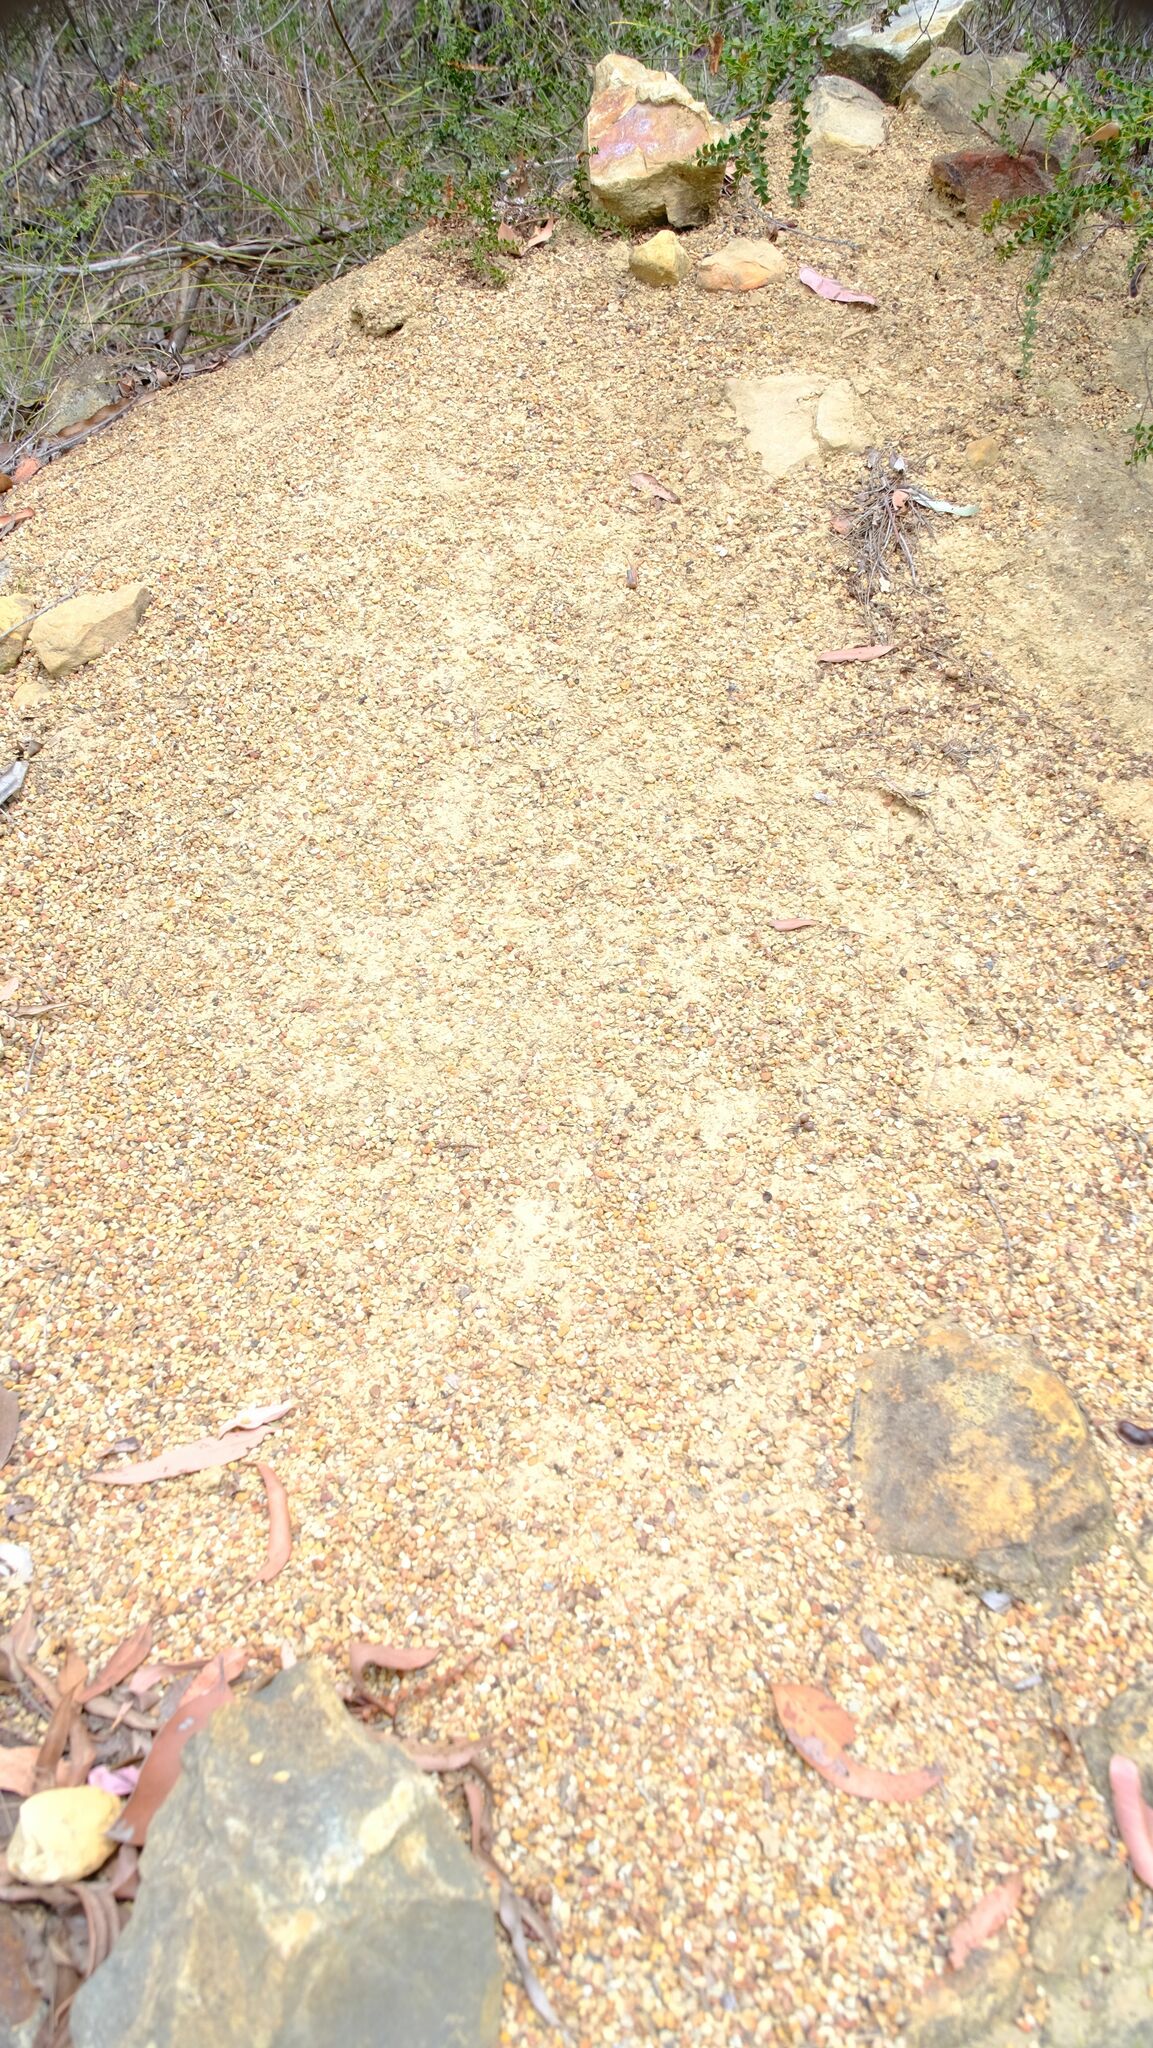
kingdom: Animalia
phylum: Arthropoda
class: Insecta
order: Hymenoptera
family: Formicidae
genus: Opisthopsis
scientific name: Opisthopsis pictus
